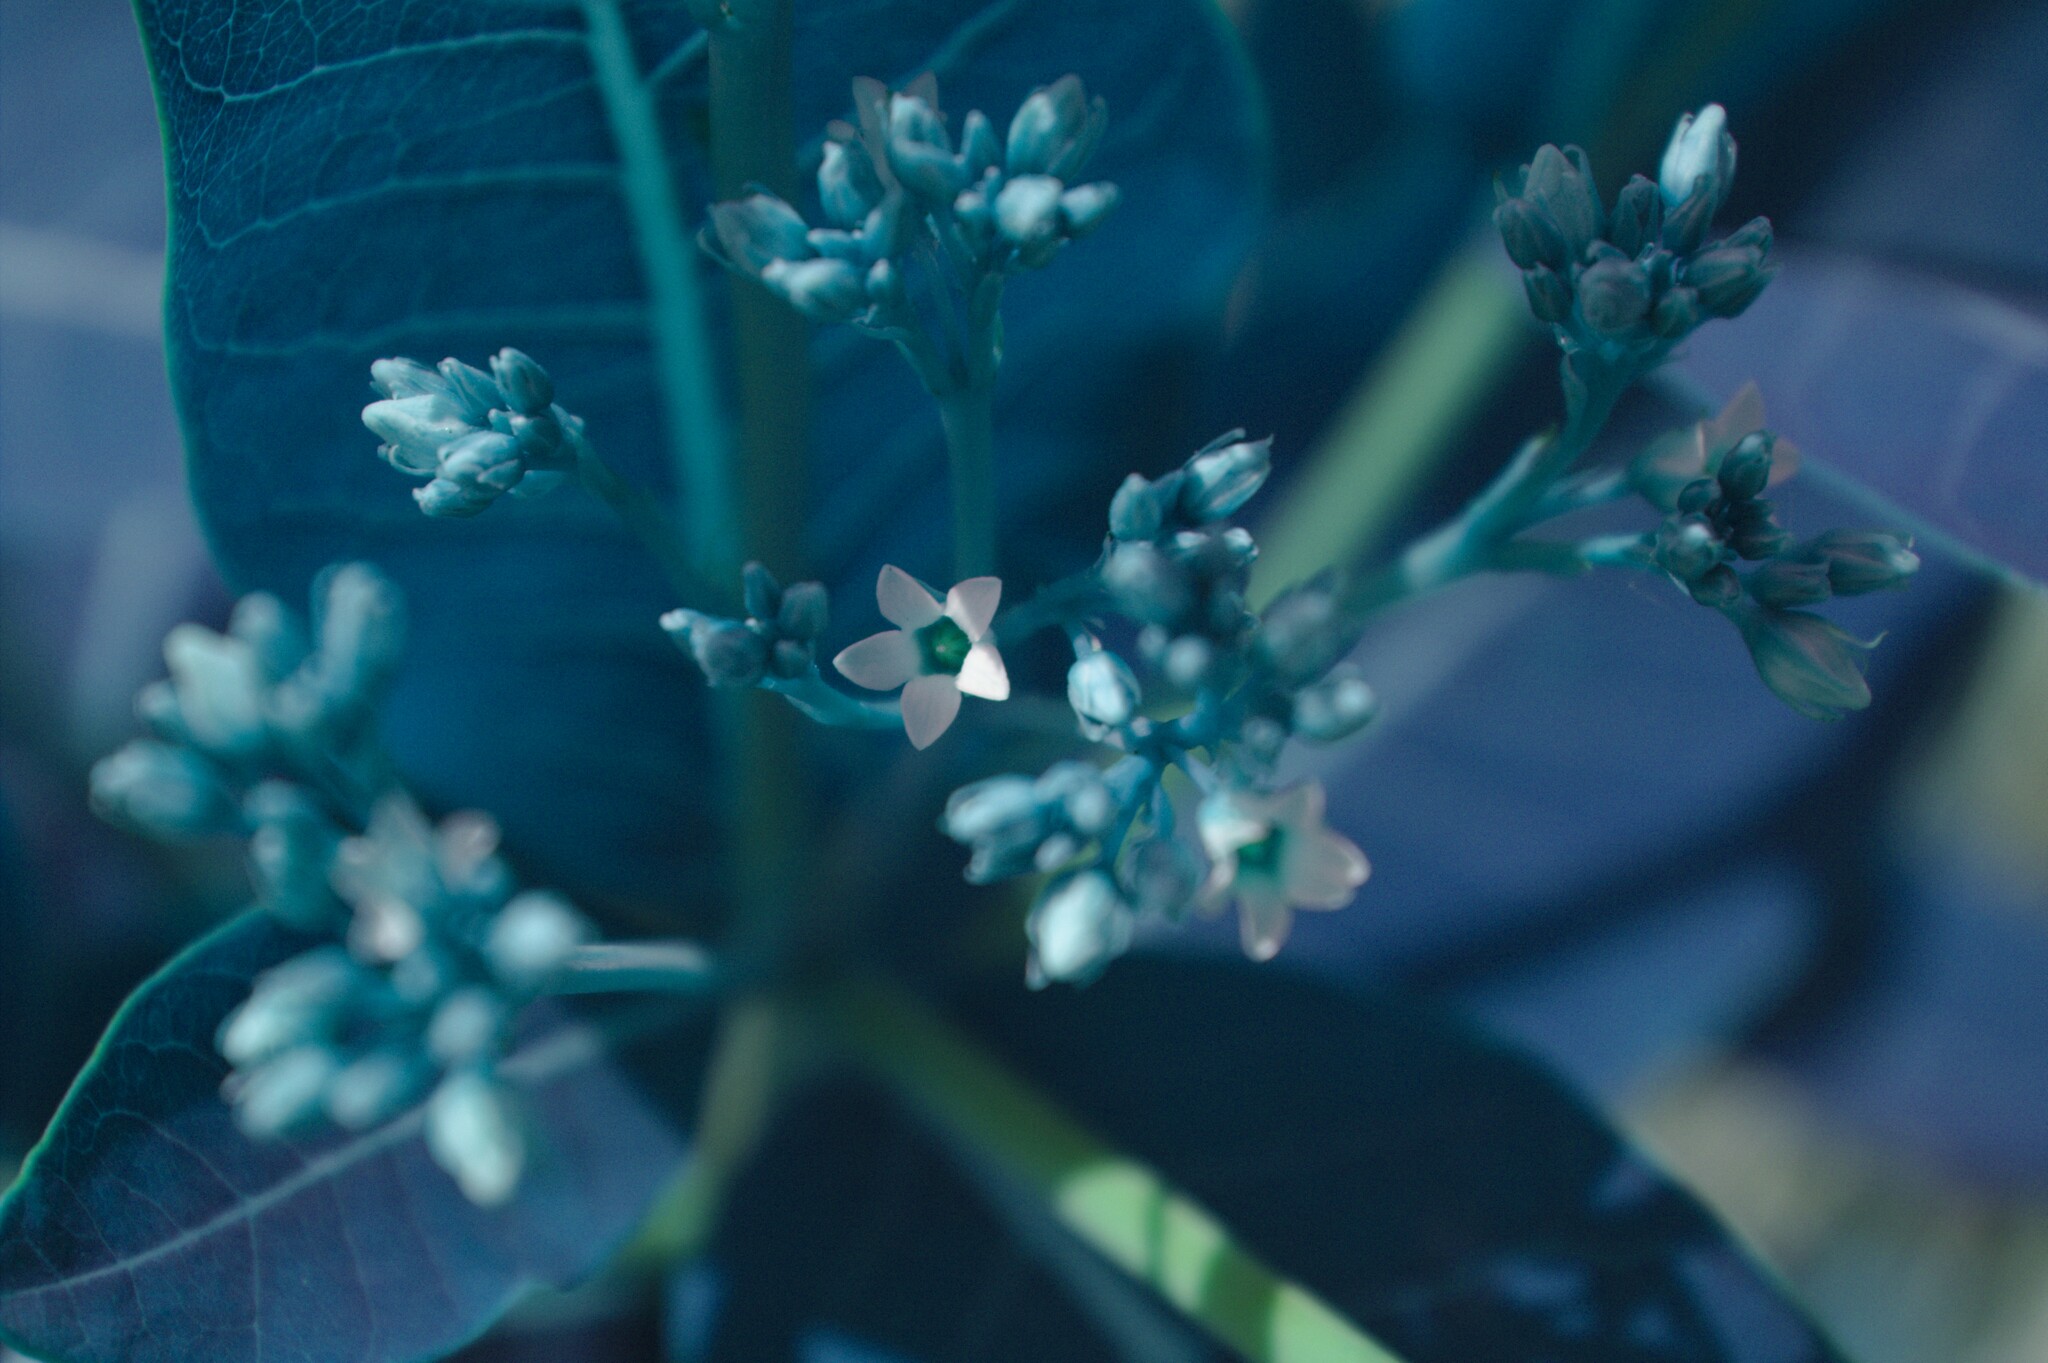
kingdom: Plantae
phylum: Tracheophyta
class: Magnoliopsida
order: Gentianales
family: Apocynaceae
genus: Apocynum
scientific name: Apocynum cannabinum
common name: Hemp dogbane
